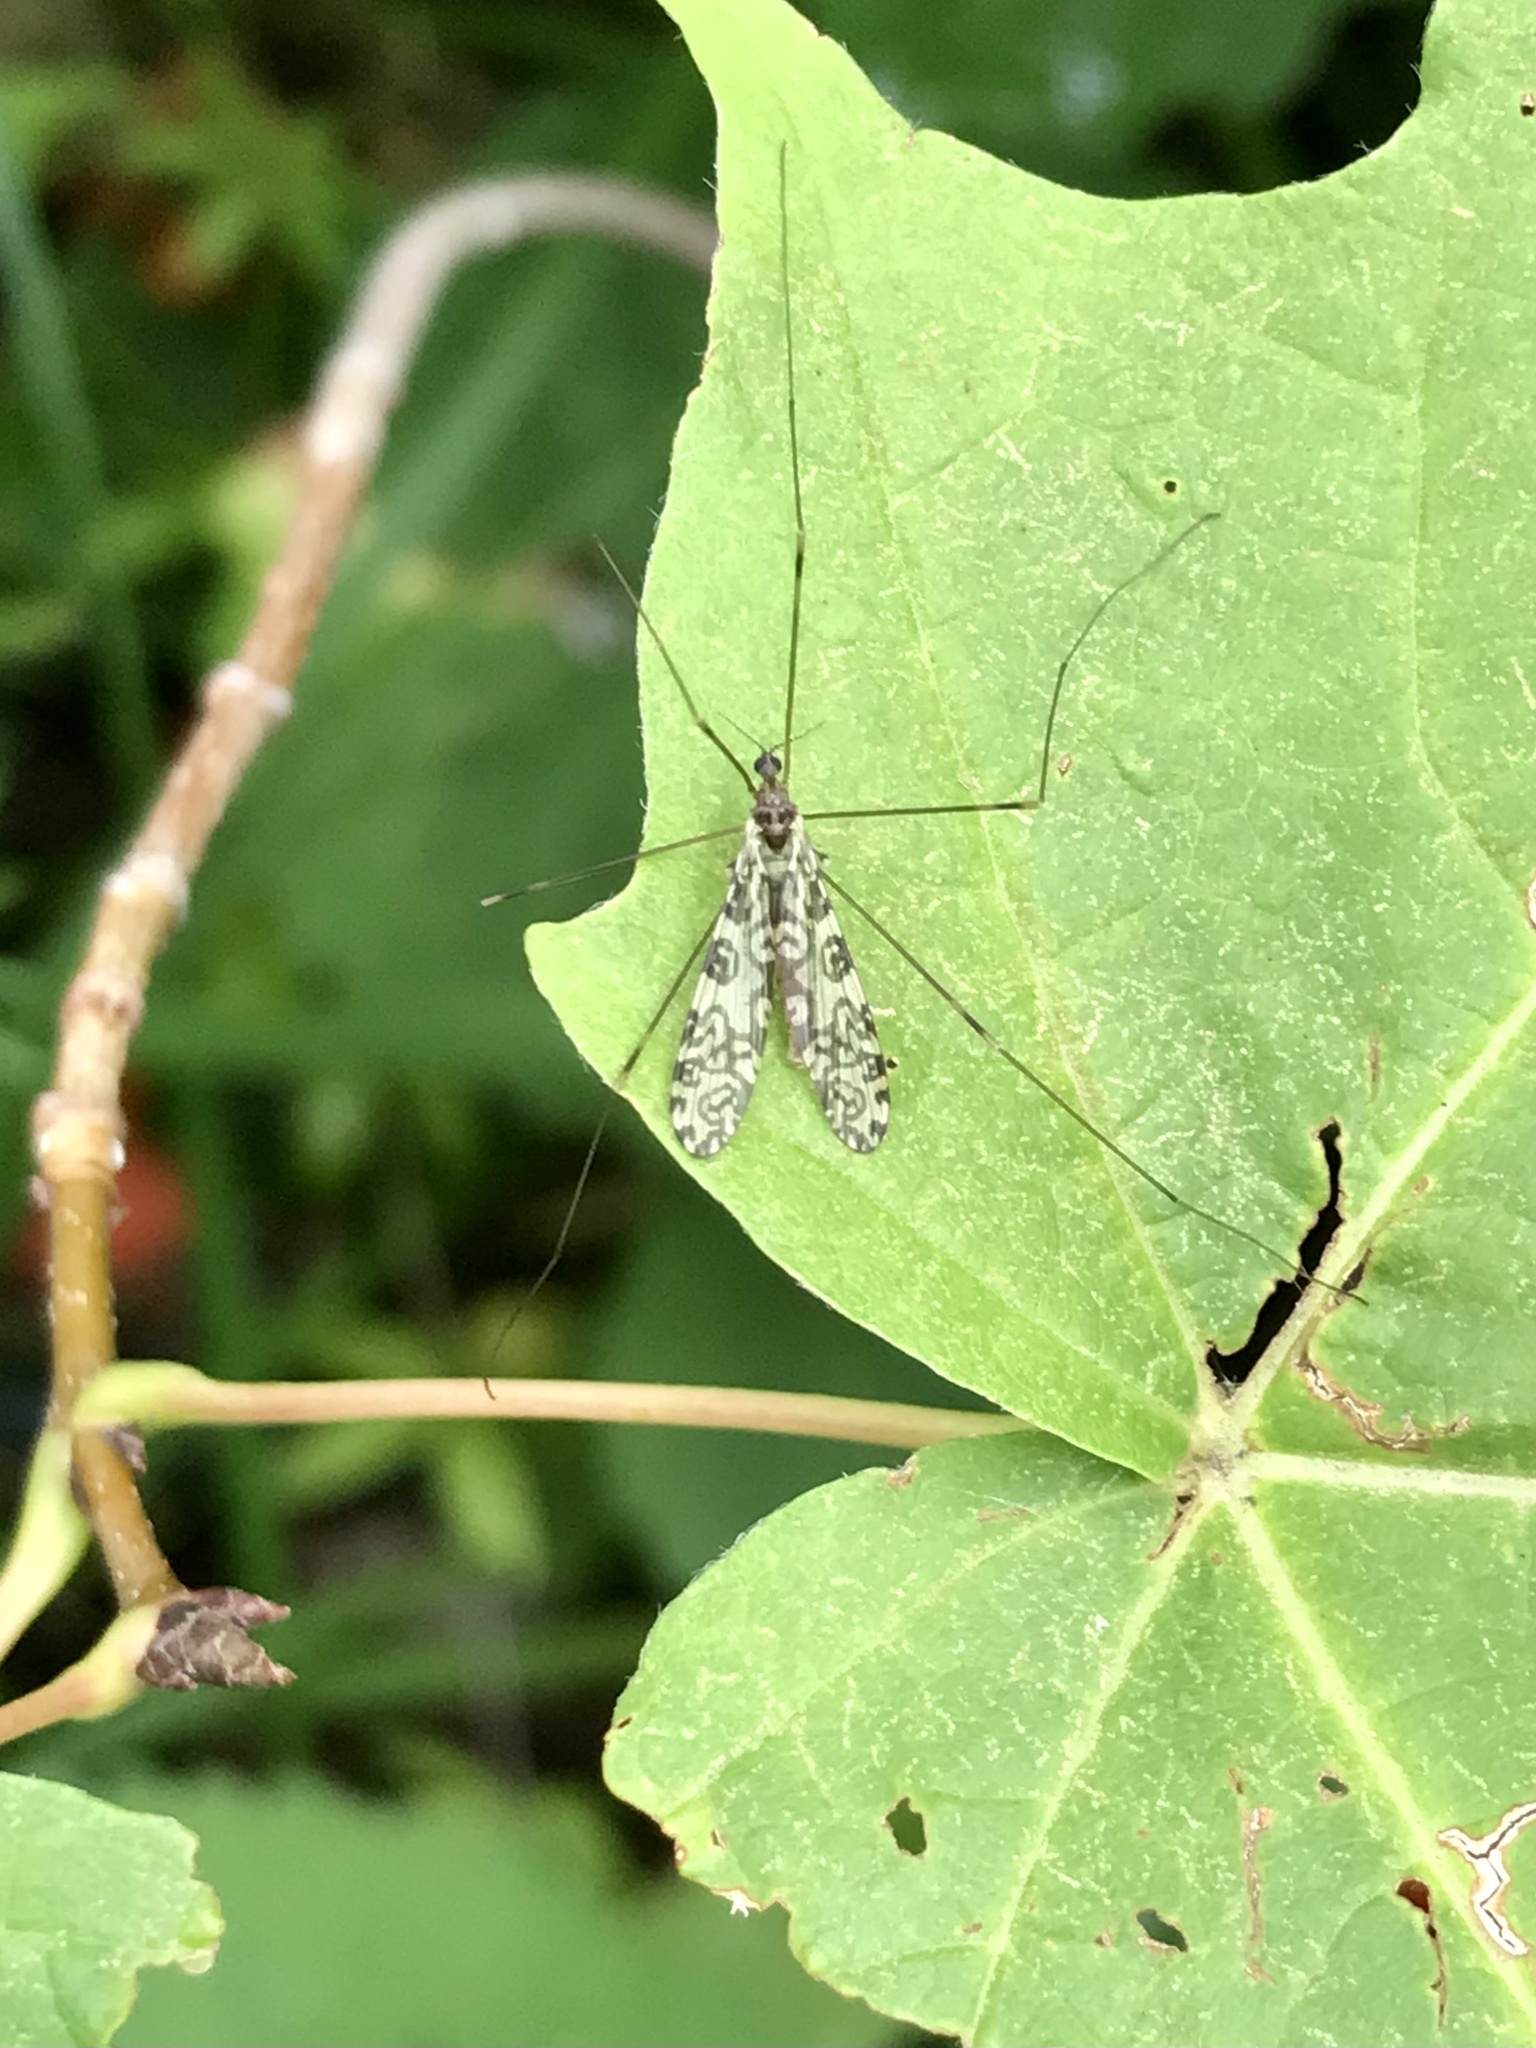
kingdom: Animalia
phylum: Arthropoda
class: Insecta
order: Diptera
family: Limoniidae
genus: Limonia
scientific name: Limonia annulata
